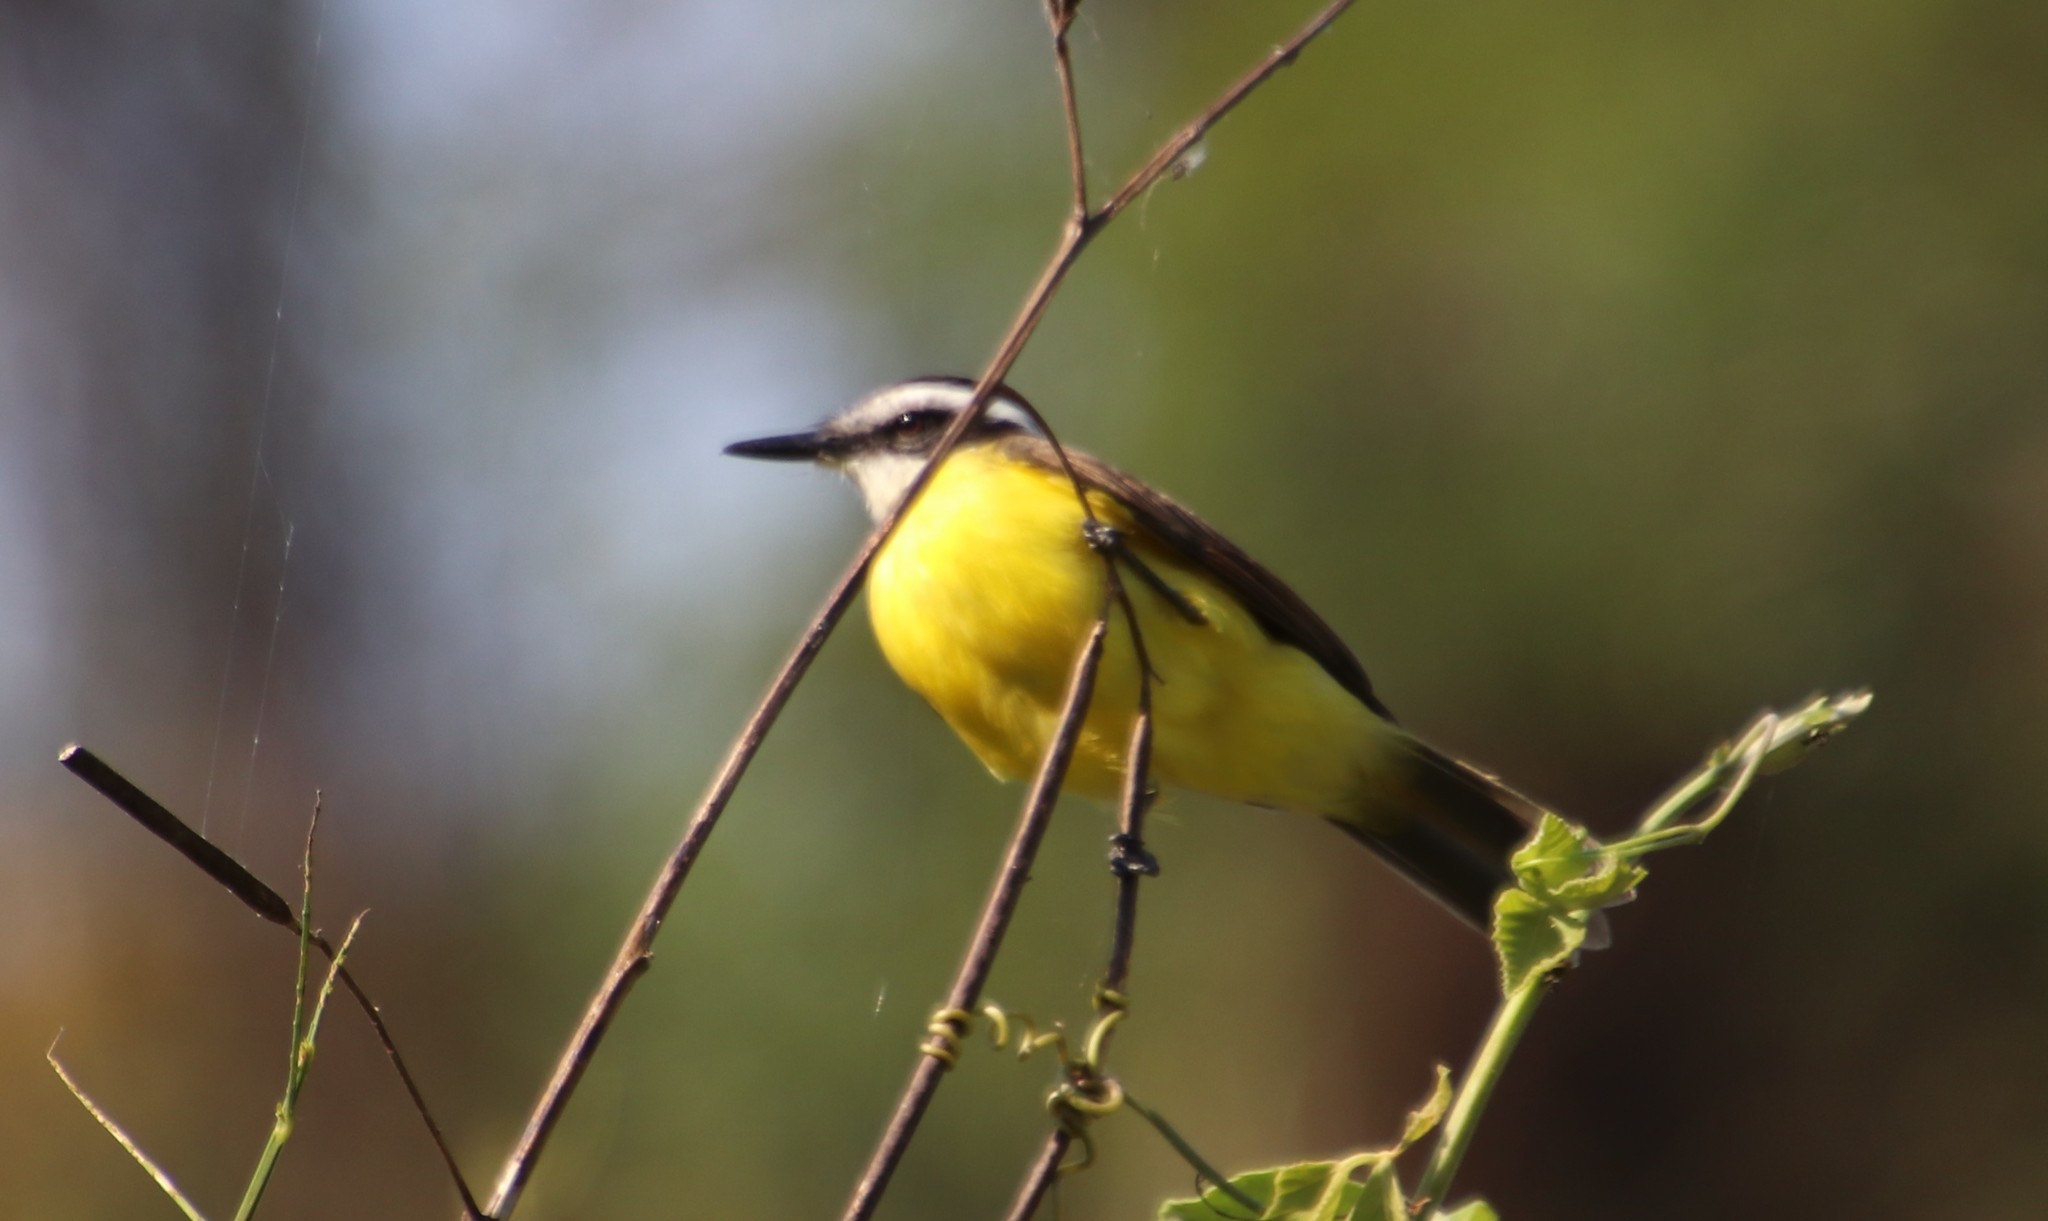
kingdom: Animalia
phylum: Chordata
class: Aves
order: Passeriformes
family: Tyrannidae
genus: Pitangus
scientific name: Pitangus lictor
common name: Lesser kiskadee
